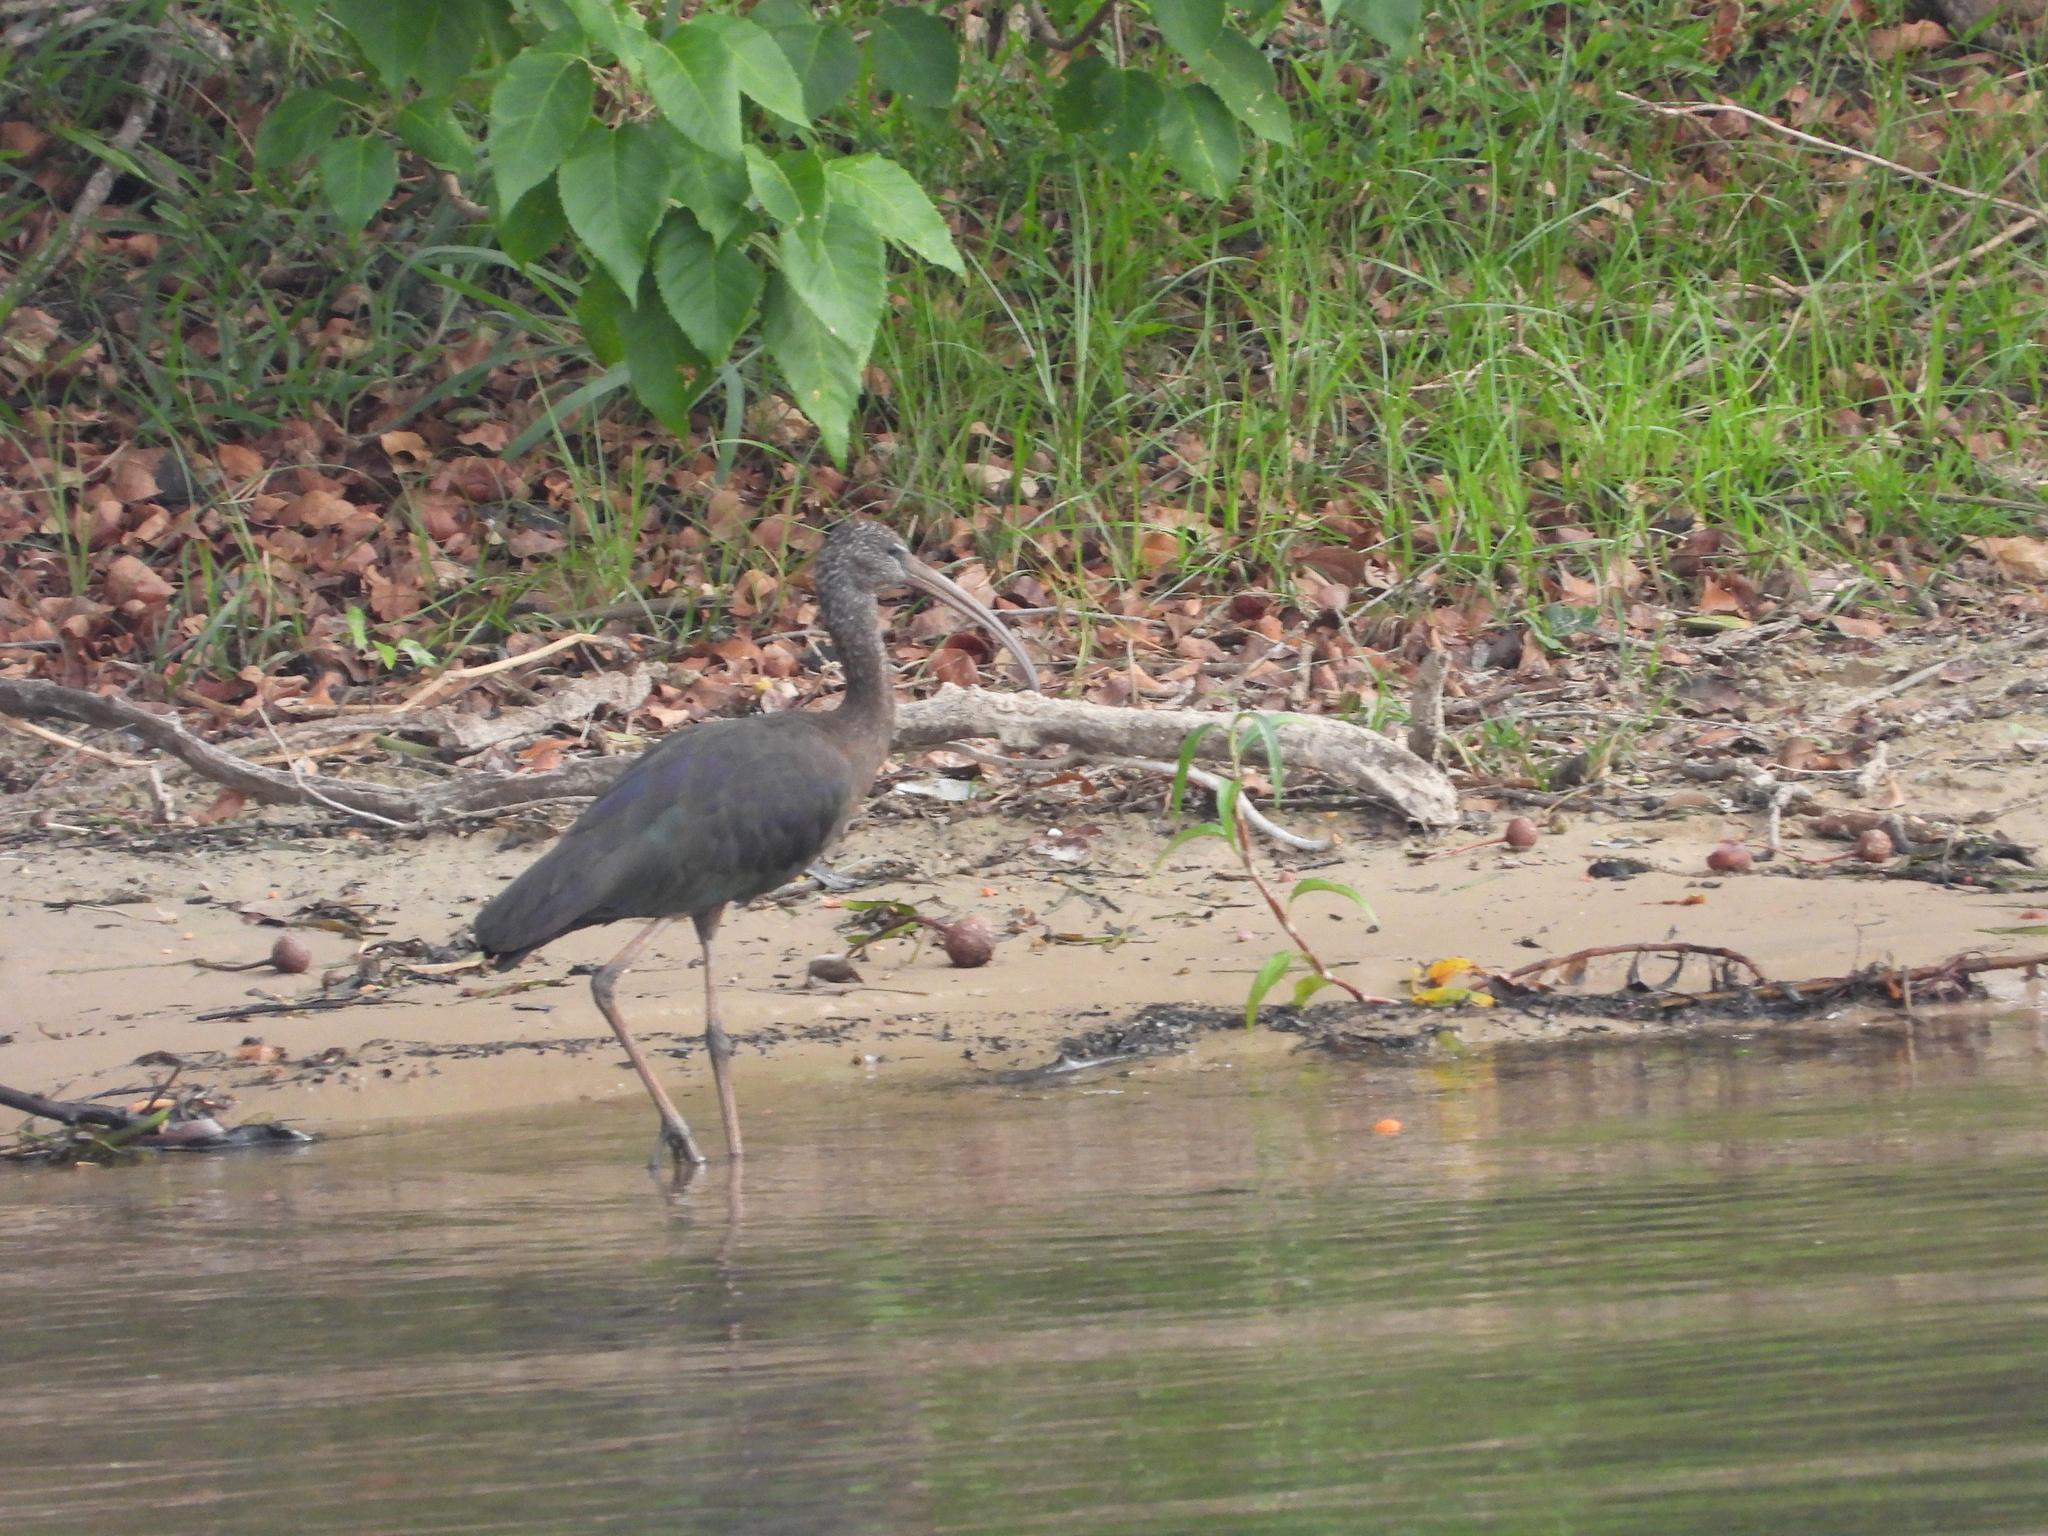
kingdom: Animalia
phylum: Chordata
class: Aves
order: Pelecaniformes
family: Threskiornithidae
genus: Plegadis
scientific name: Plegadis falcinellus
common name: Glossy ibis
